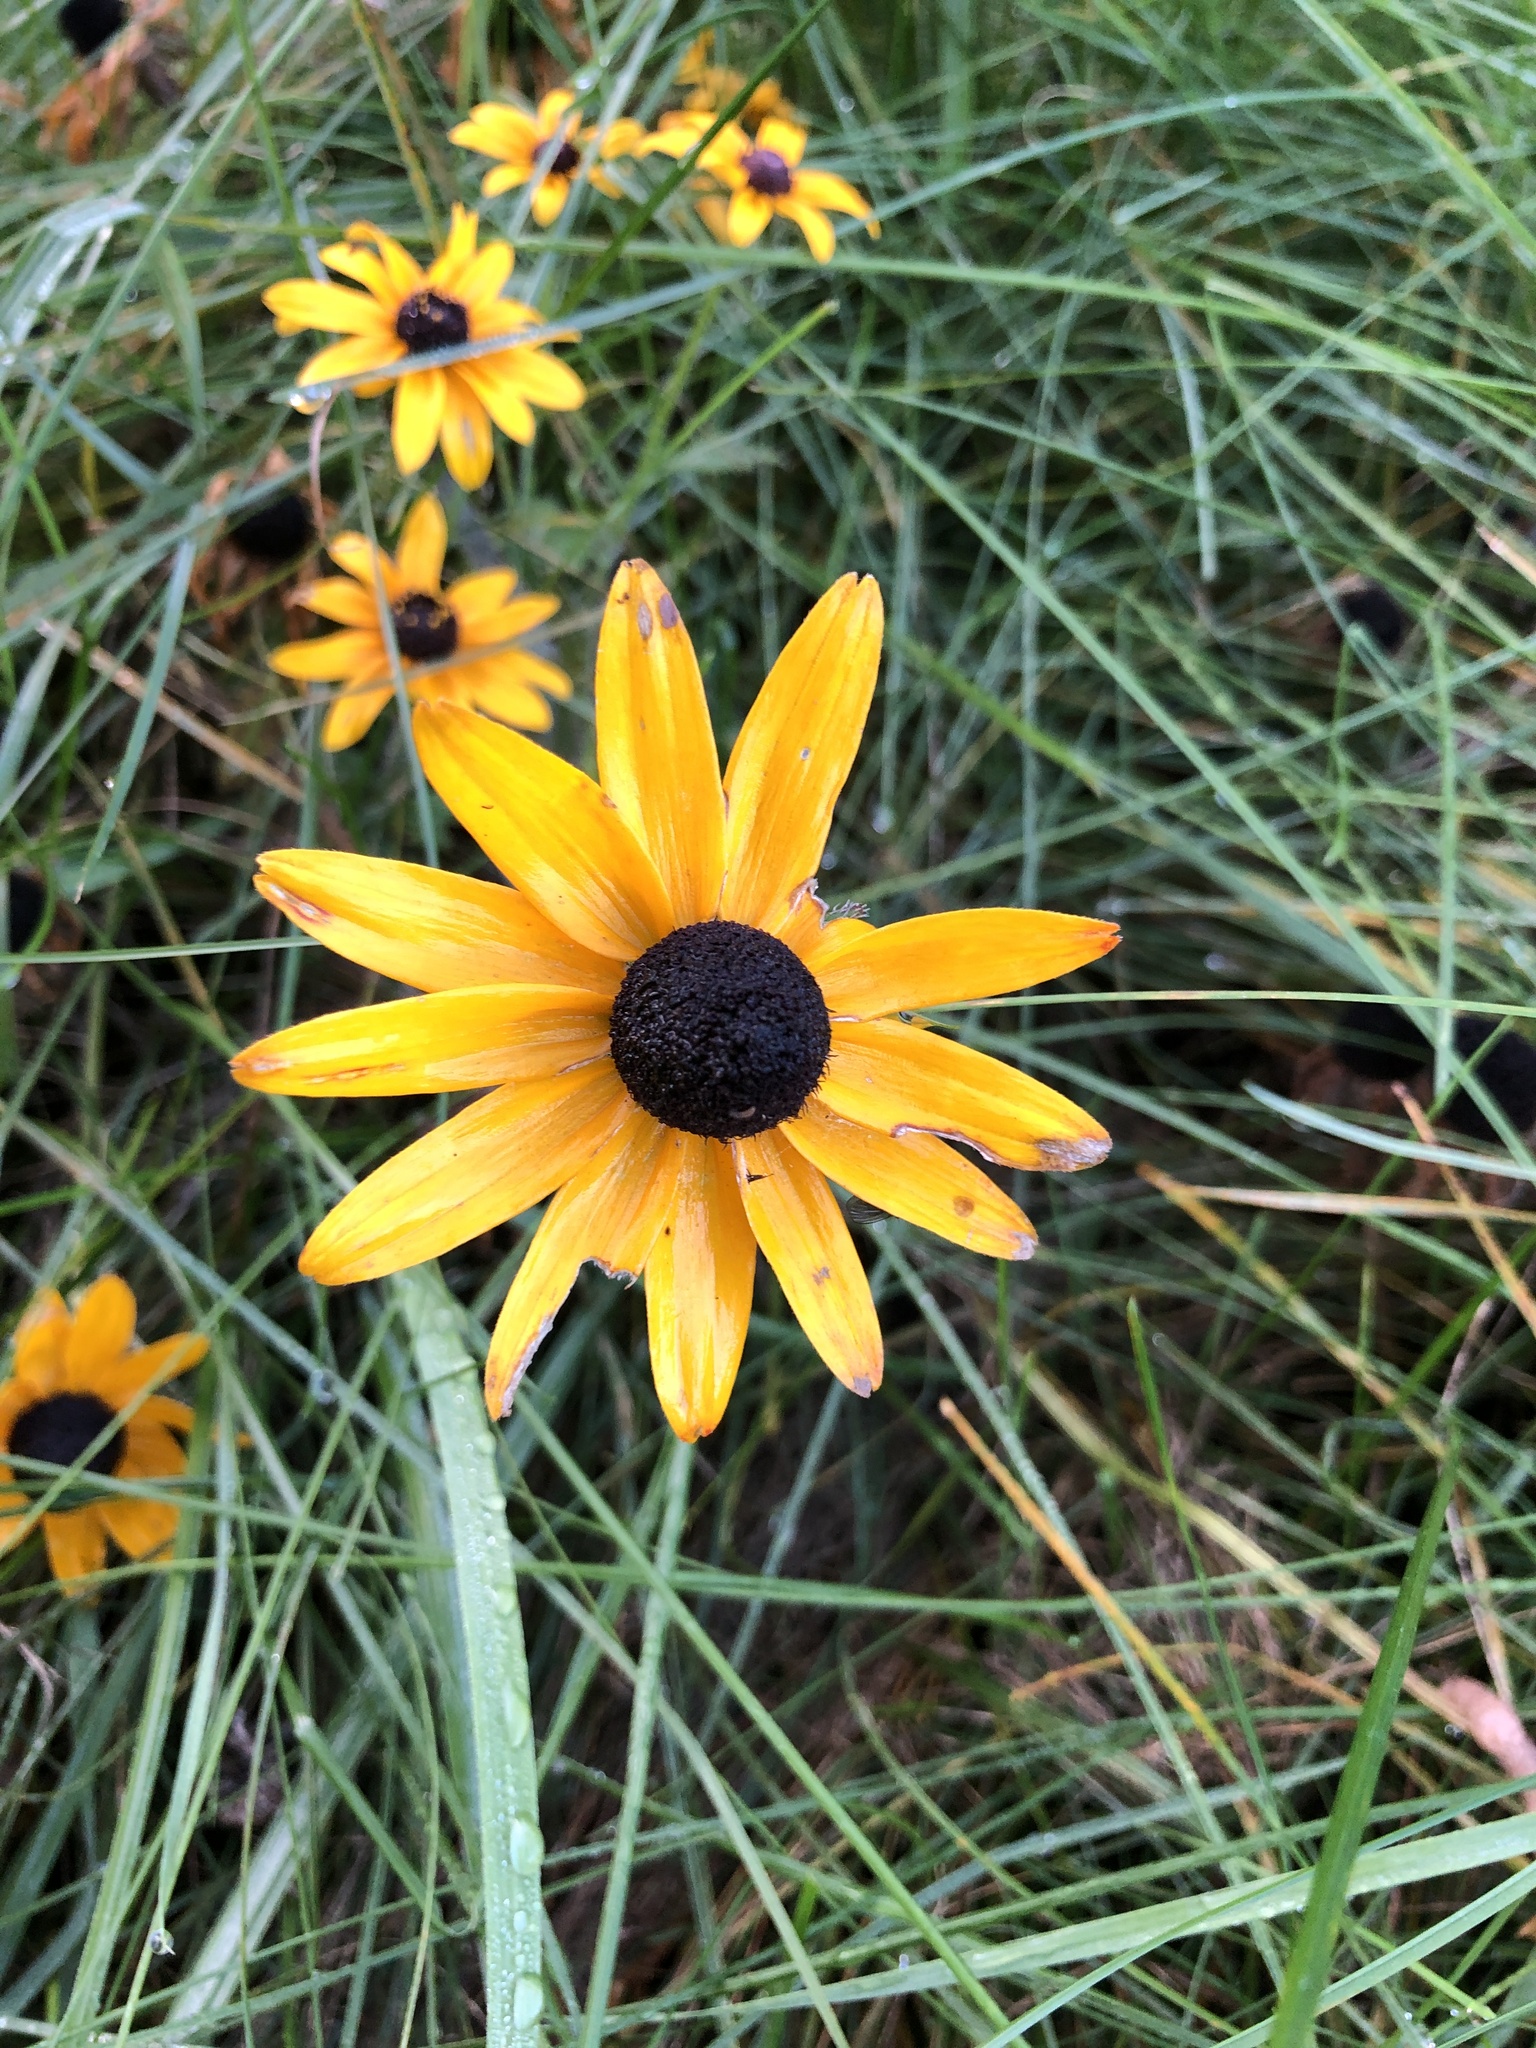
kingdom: Plantae
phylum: Tracheophyta
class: Magnoliopsida
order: Asterales
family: Asteraceae
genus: Rudbeckia
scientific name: Rudbeckia hirta
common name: Black-eyed-susan
